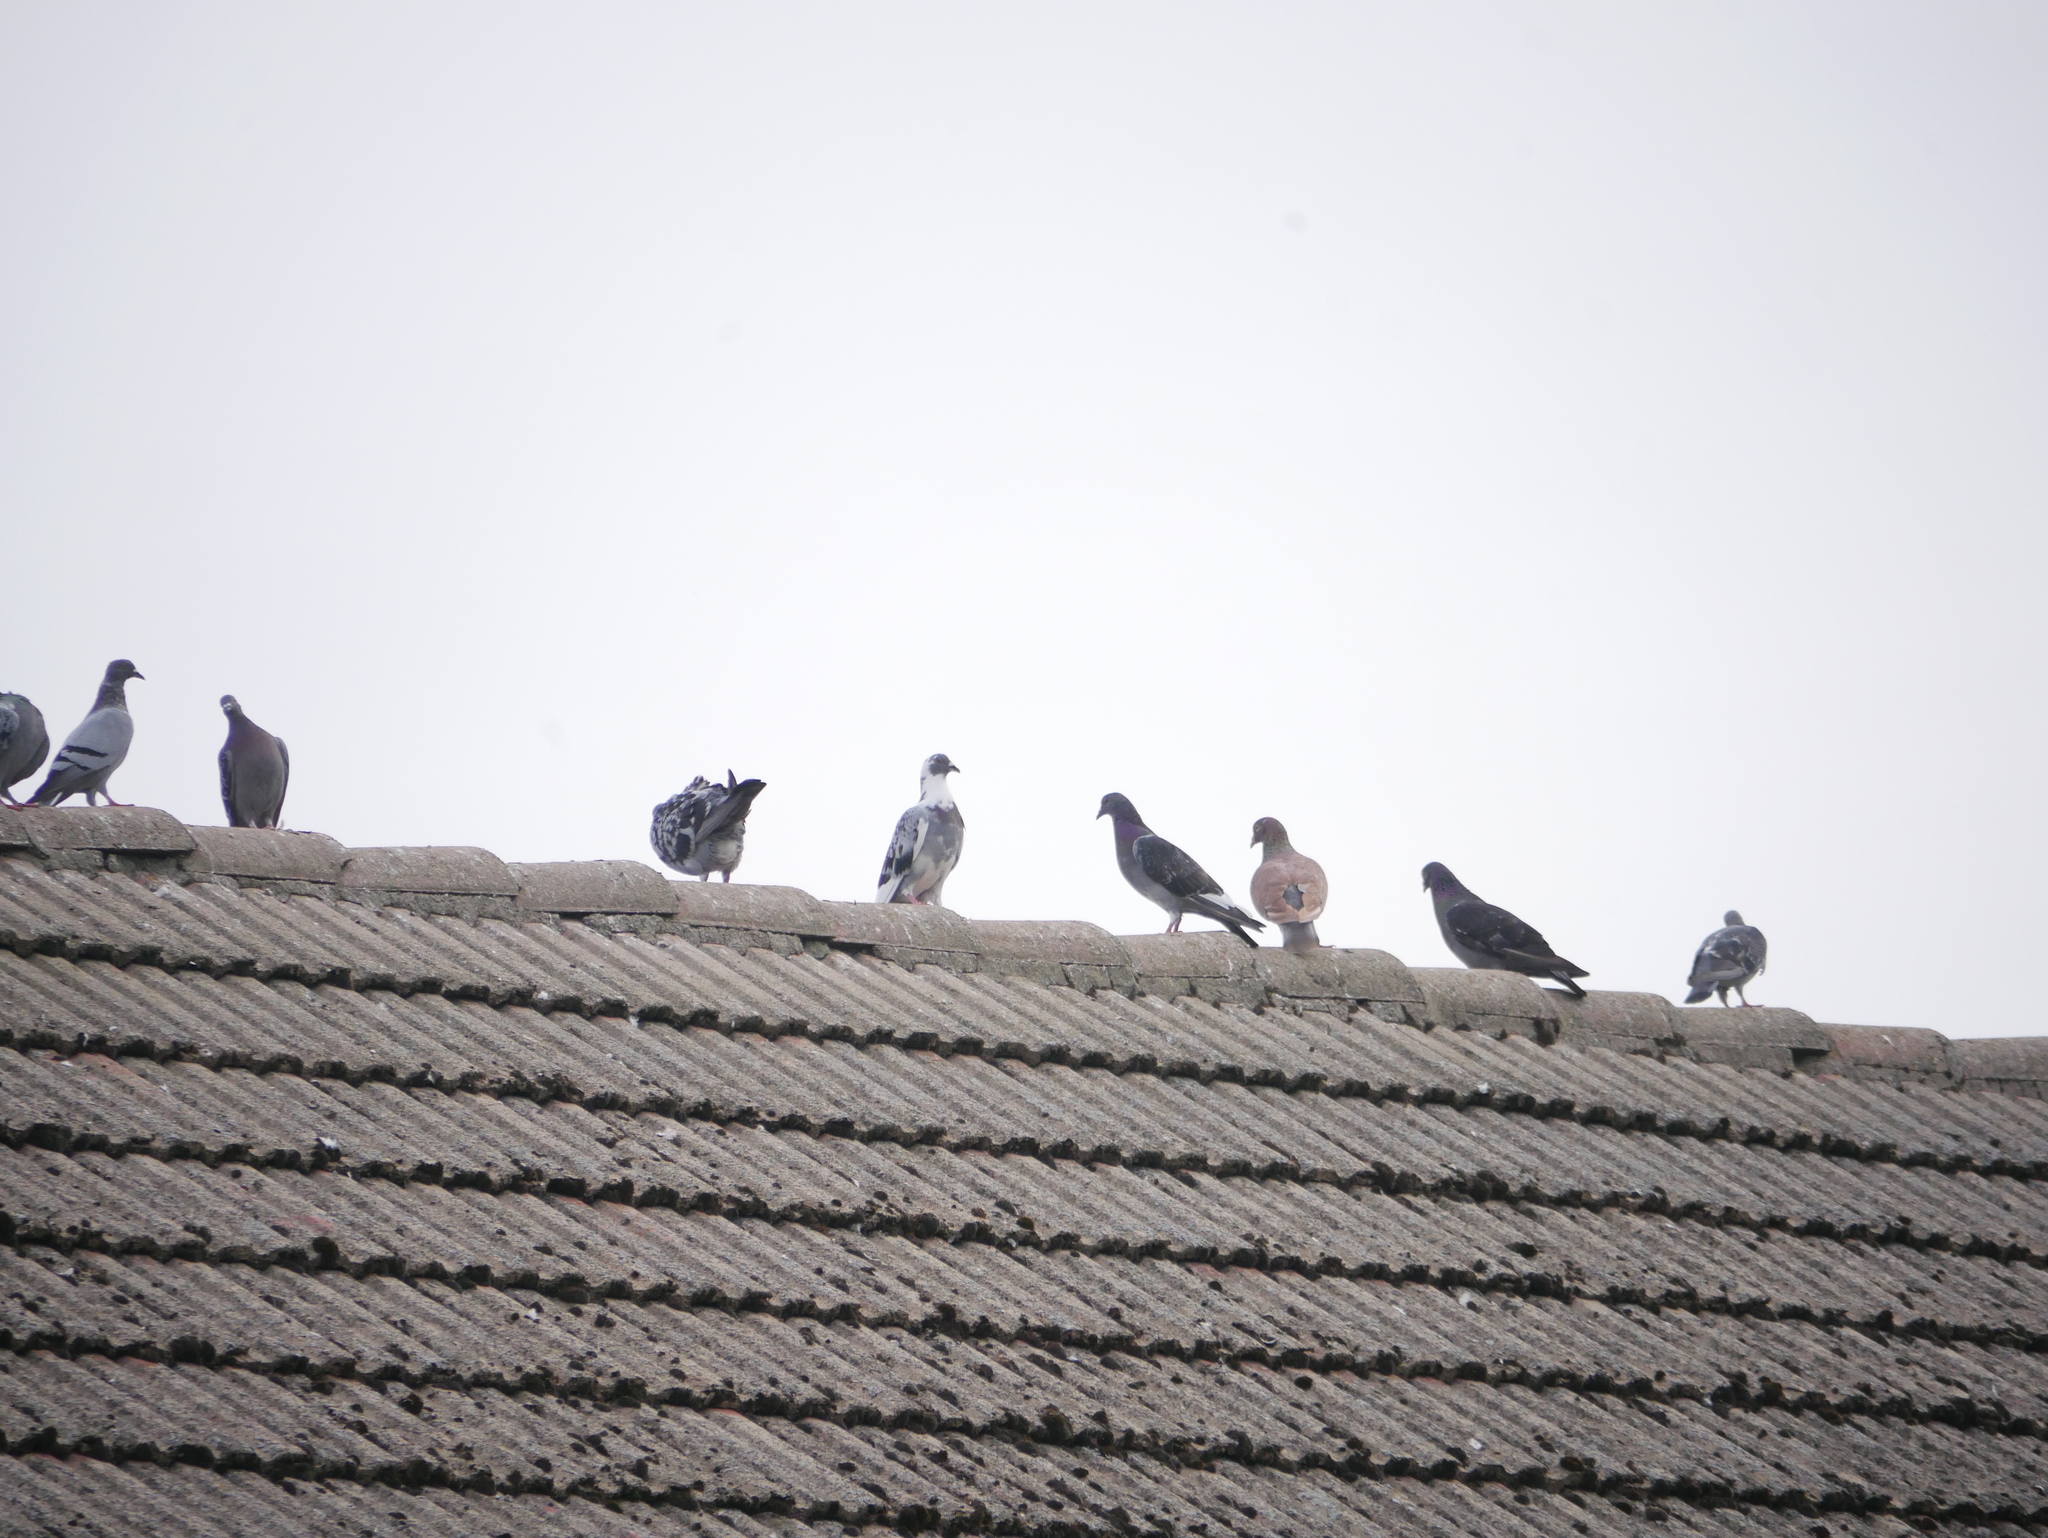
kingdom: Animalia
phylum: Chordata
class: Aves
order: Columbiformes
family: Columbidae
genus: Columba
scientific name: Columba livia
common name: Rock pigeon
